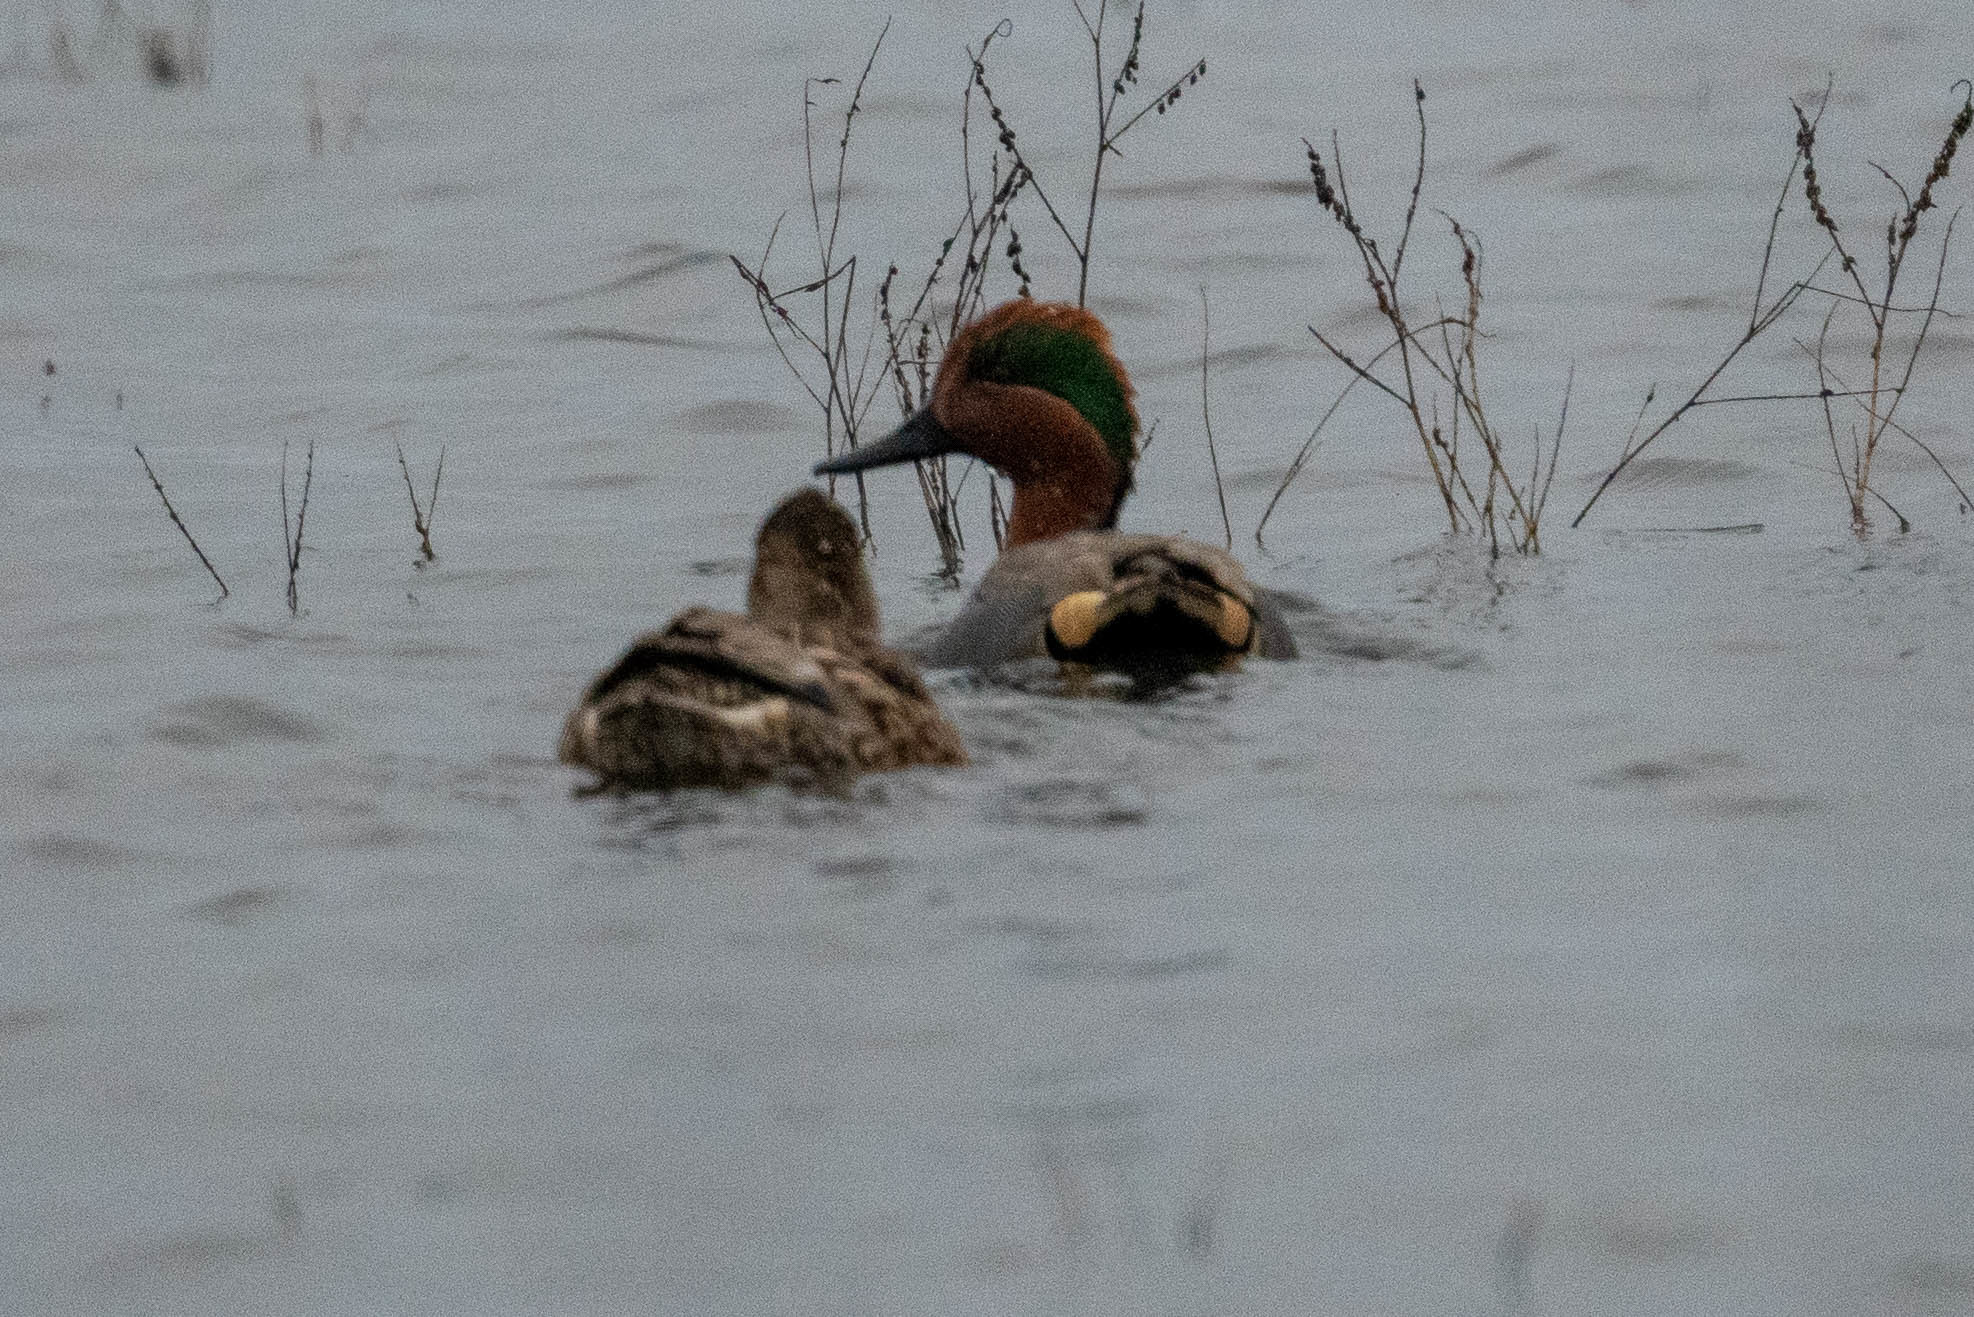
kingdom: Animalia
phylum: Chordata
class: Aves
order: Anseriformes
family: Anatidae
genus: Anas
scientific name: Anas crecca
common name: Eurasian teal
